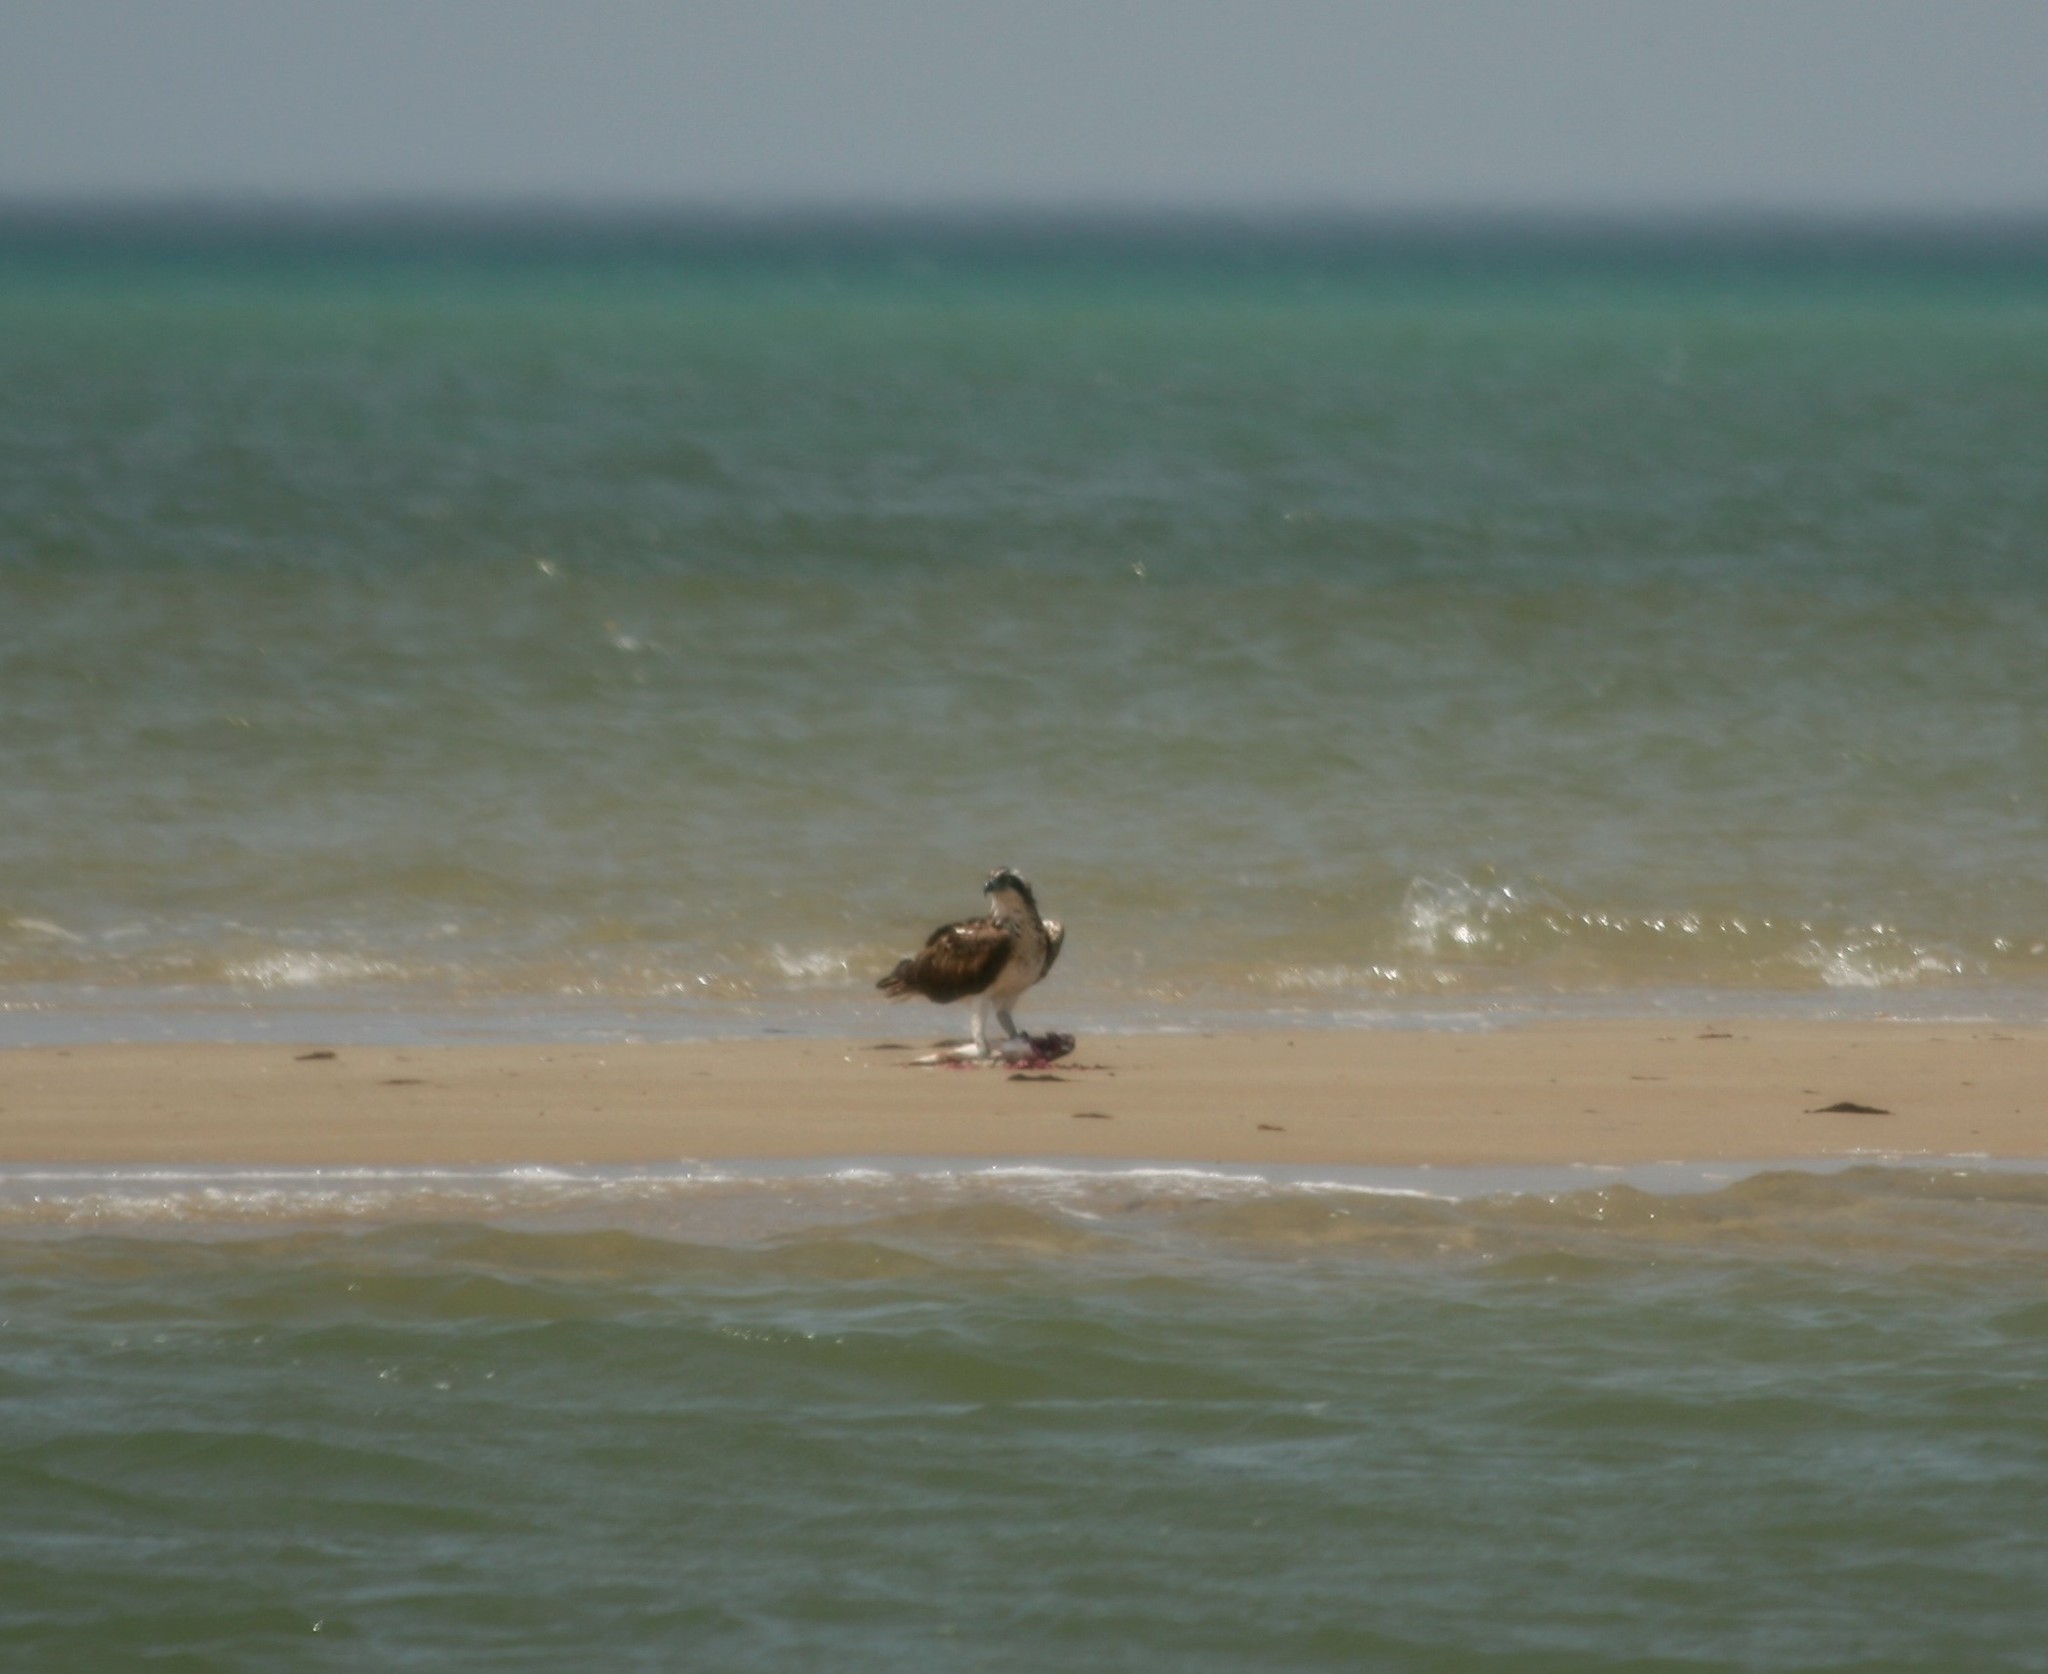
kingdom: Animalia
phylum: Chordata
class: Aves
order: Accipitriformes
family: Pandionidae
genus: Pandion
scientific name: Pandion haliaetus
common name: Osprey
